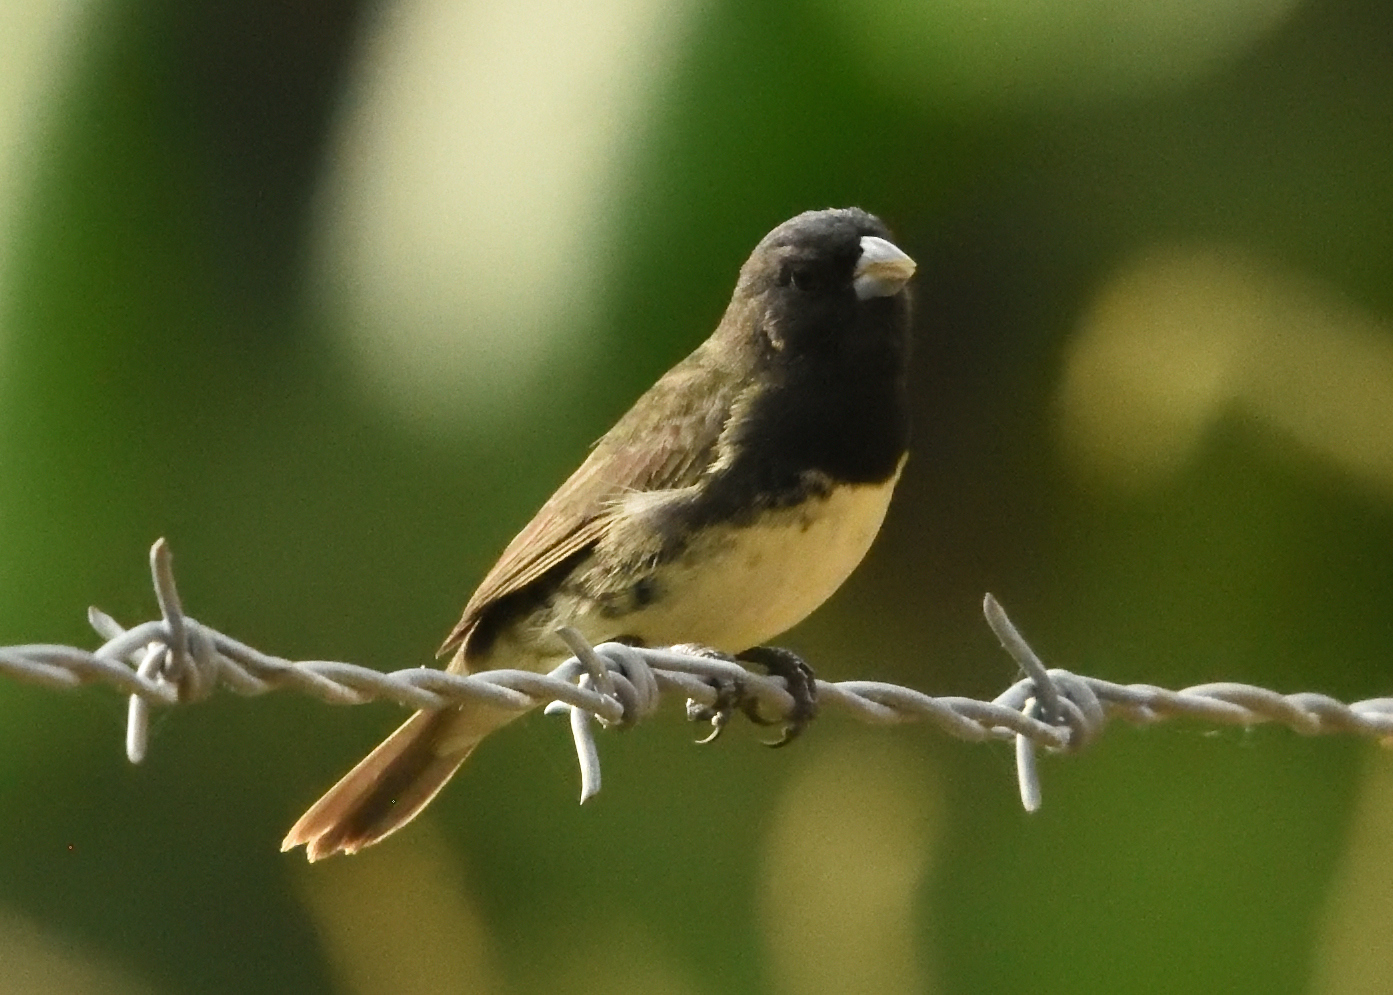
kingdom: Animalia
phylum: Chordata
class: Aves
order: Passeriformes
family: Thraupidae
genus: Sporophila
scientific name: Sporophila nigricollis
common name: Yellow-bellied seedeater
